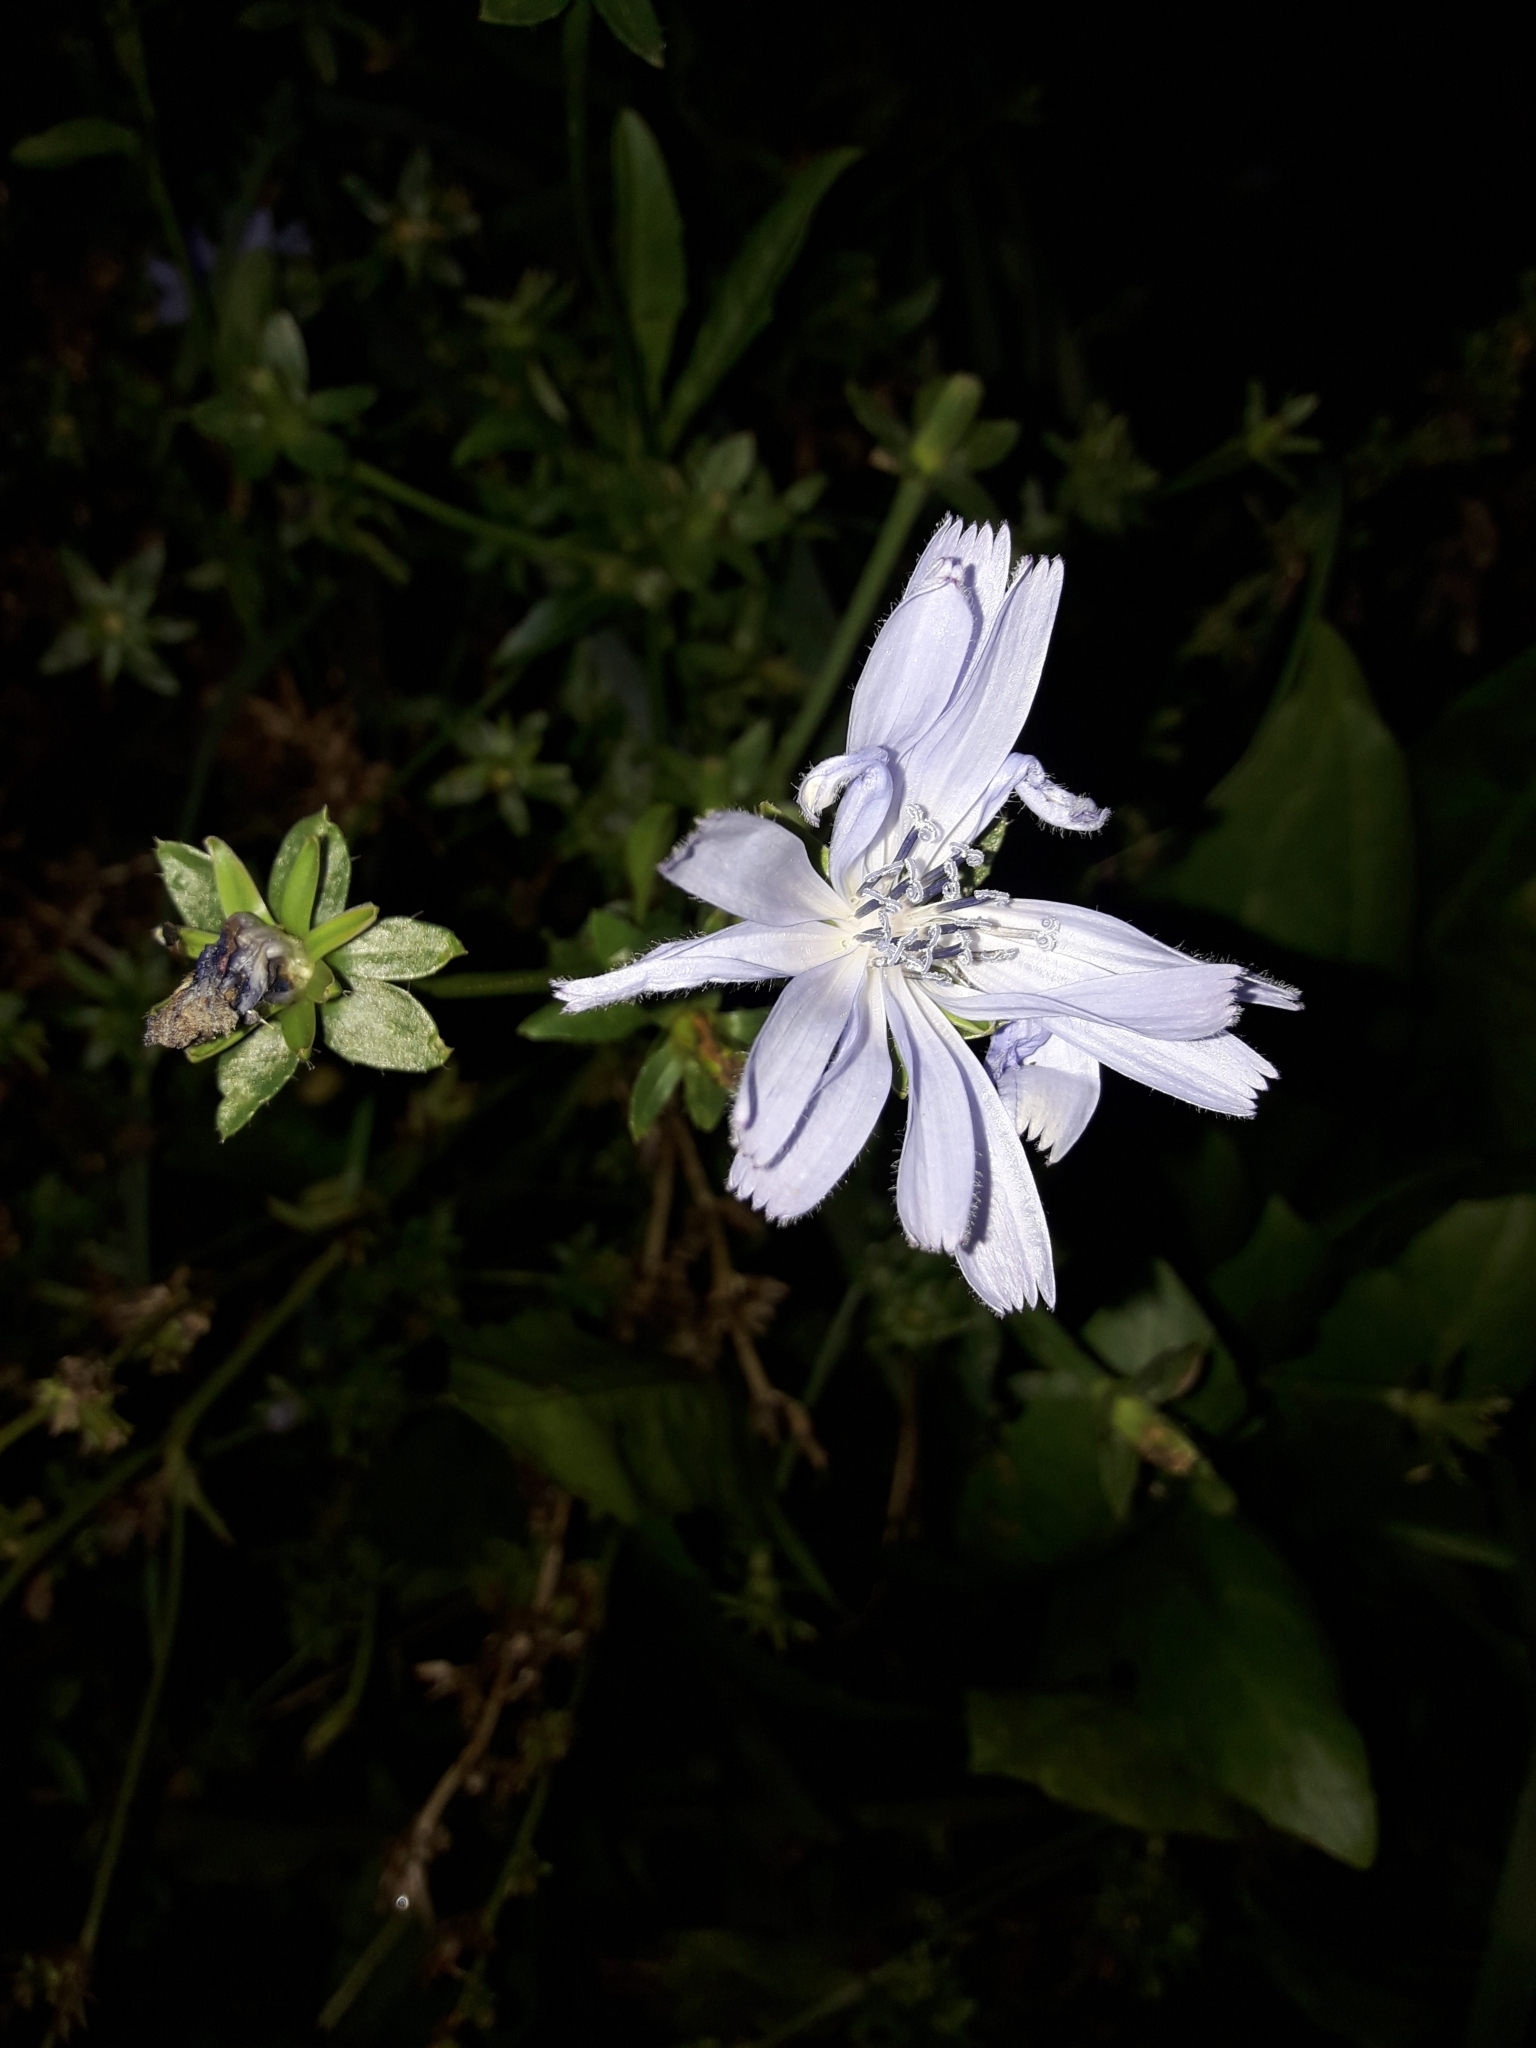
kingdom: Plantae
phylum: Tracheophyta
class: Magnoliopsida
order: Asterales
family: Asteraceae
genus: Cichorium
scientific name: Cichorium intybus
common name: Chicory
